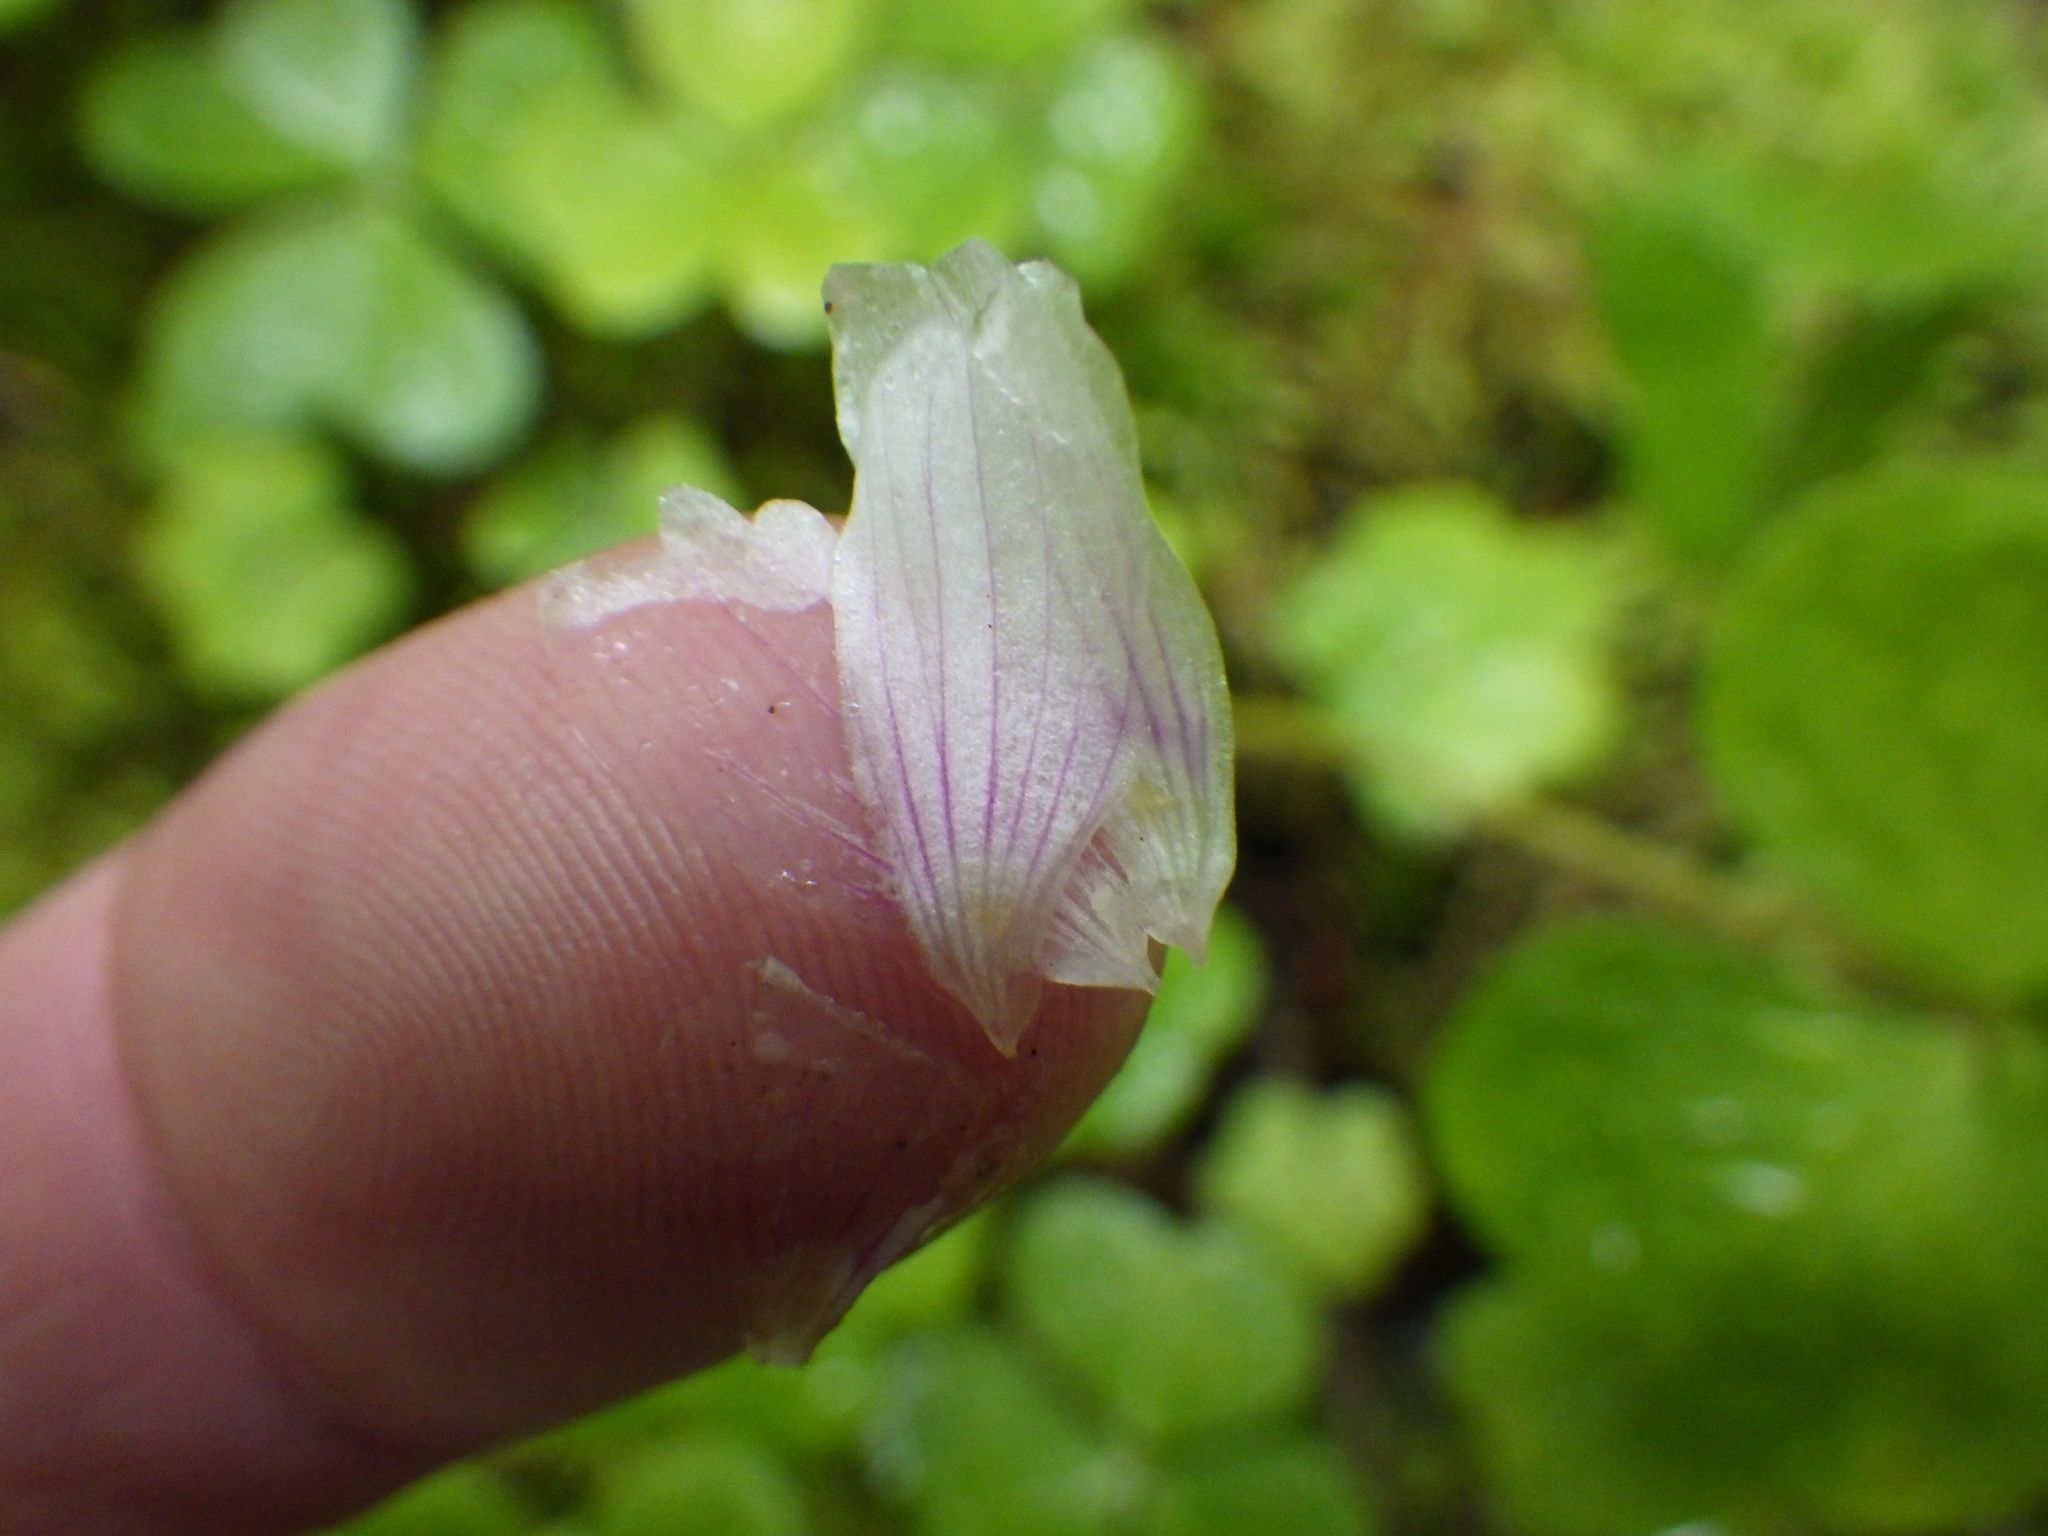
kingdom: Plantae
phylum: Tracheophyta
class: Magnoliopsida
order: Oxalidales
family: Oxalidaceae
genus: Oxalis
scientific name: Oxalis montana
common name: American wood-sorrel
